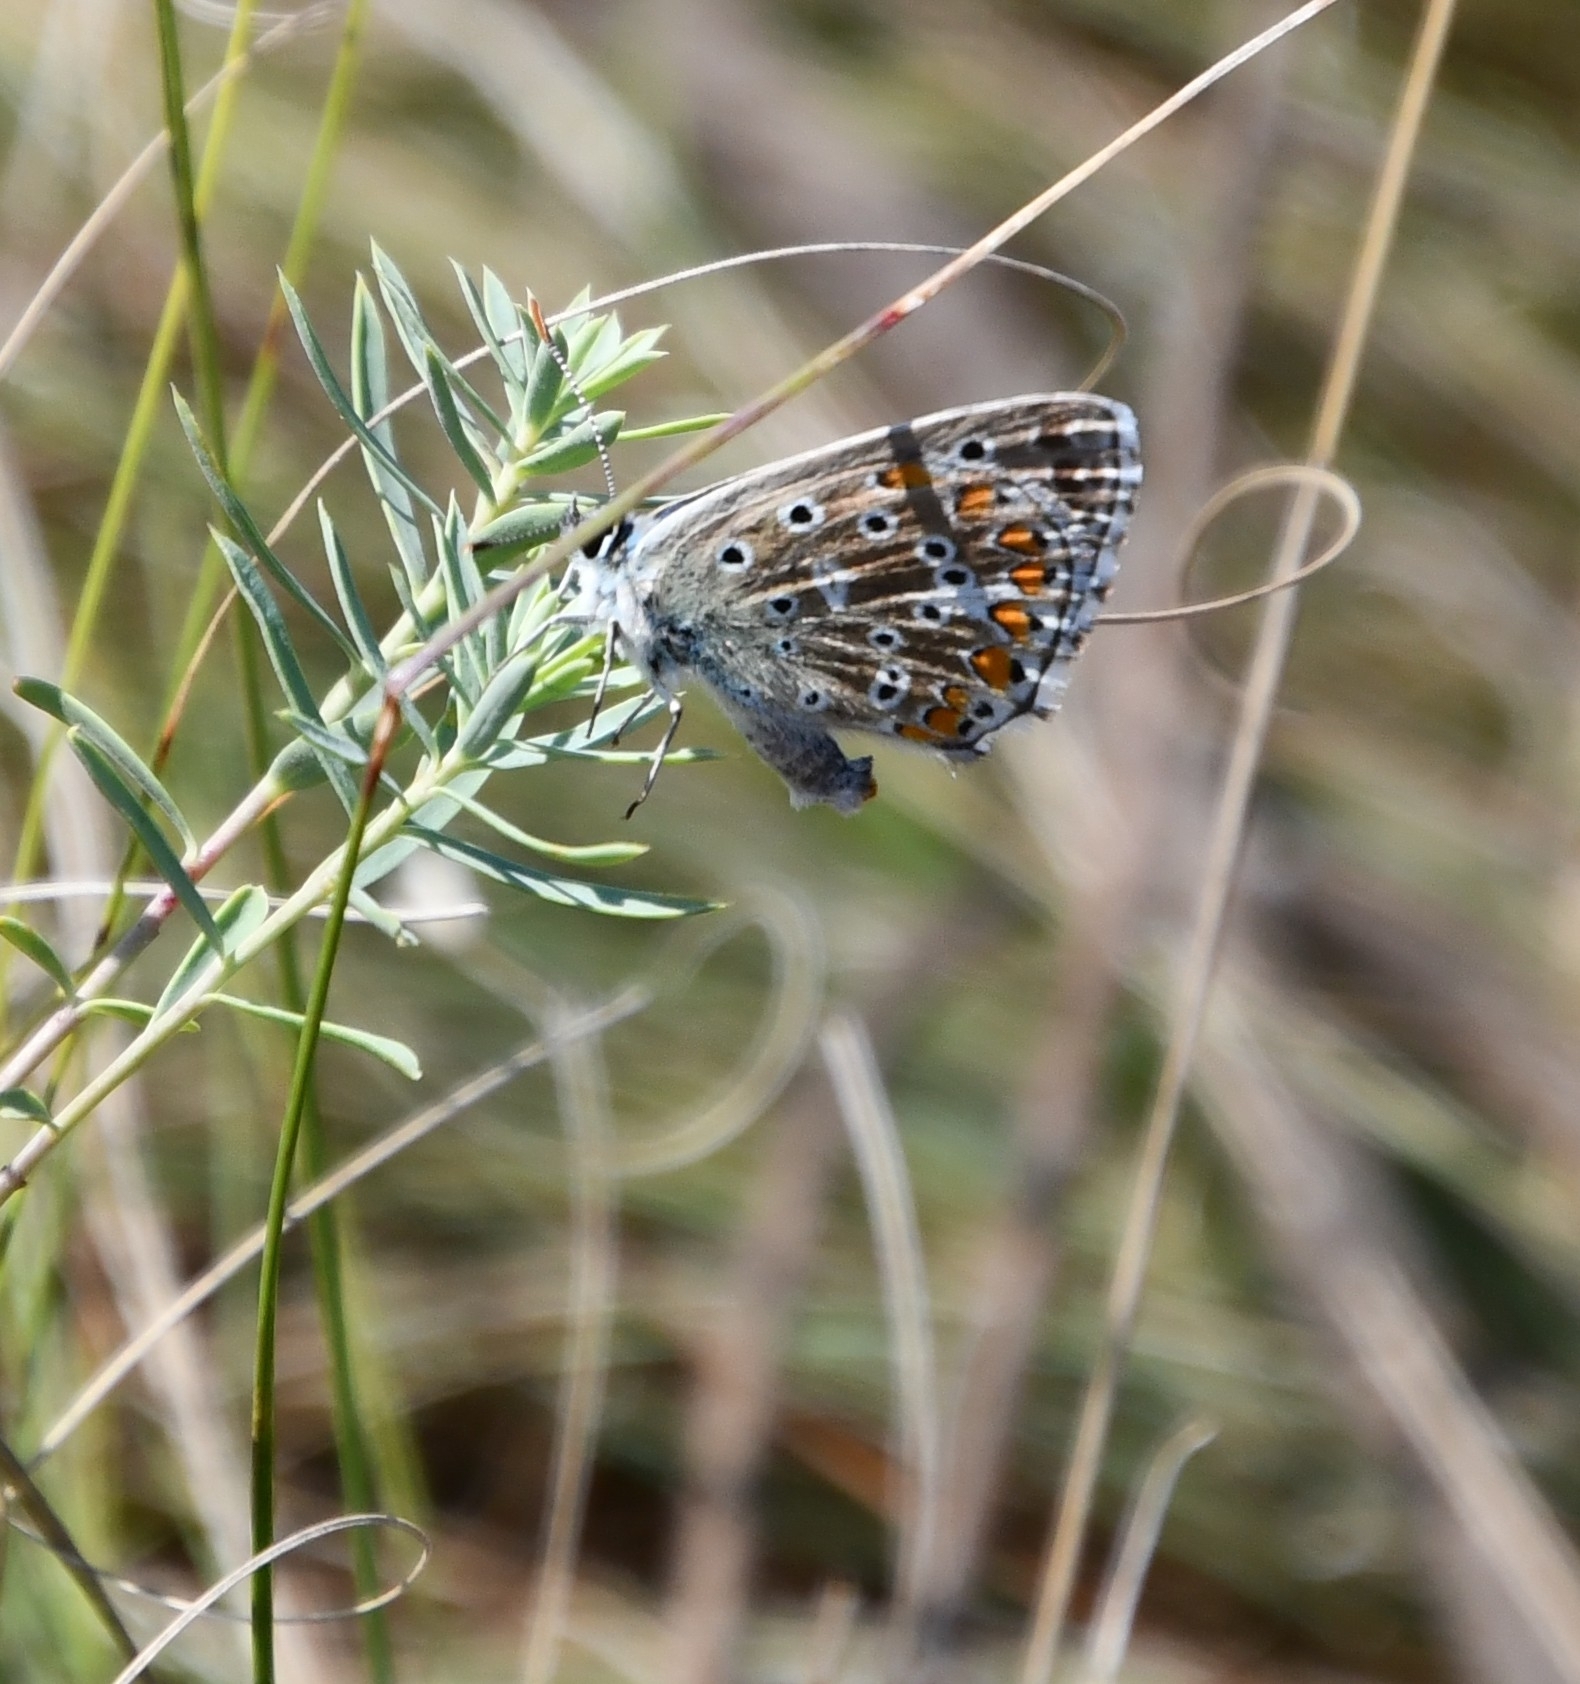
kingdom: Animalia
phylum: Arthropoda
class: Insecta
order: Lepidoptera
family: Lycaenidae
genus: Lysandra
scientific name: Lysandra bellargus
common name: Adonis blue
